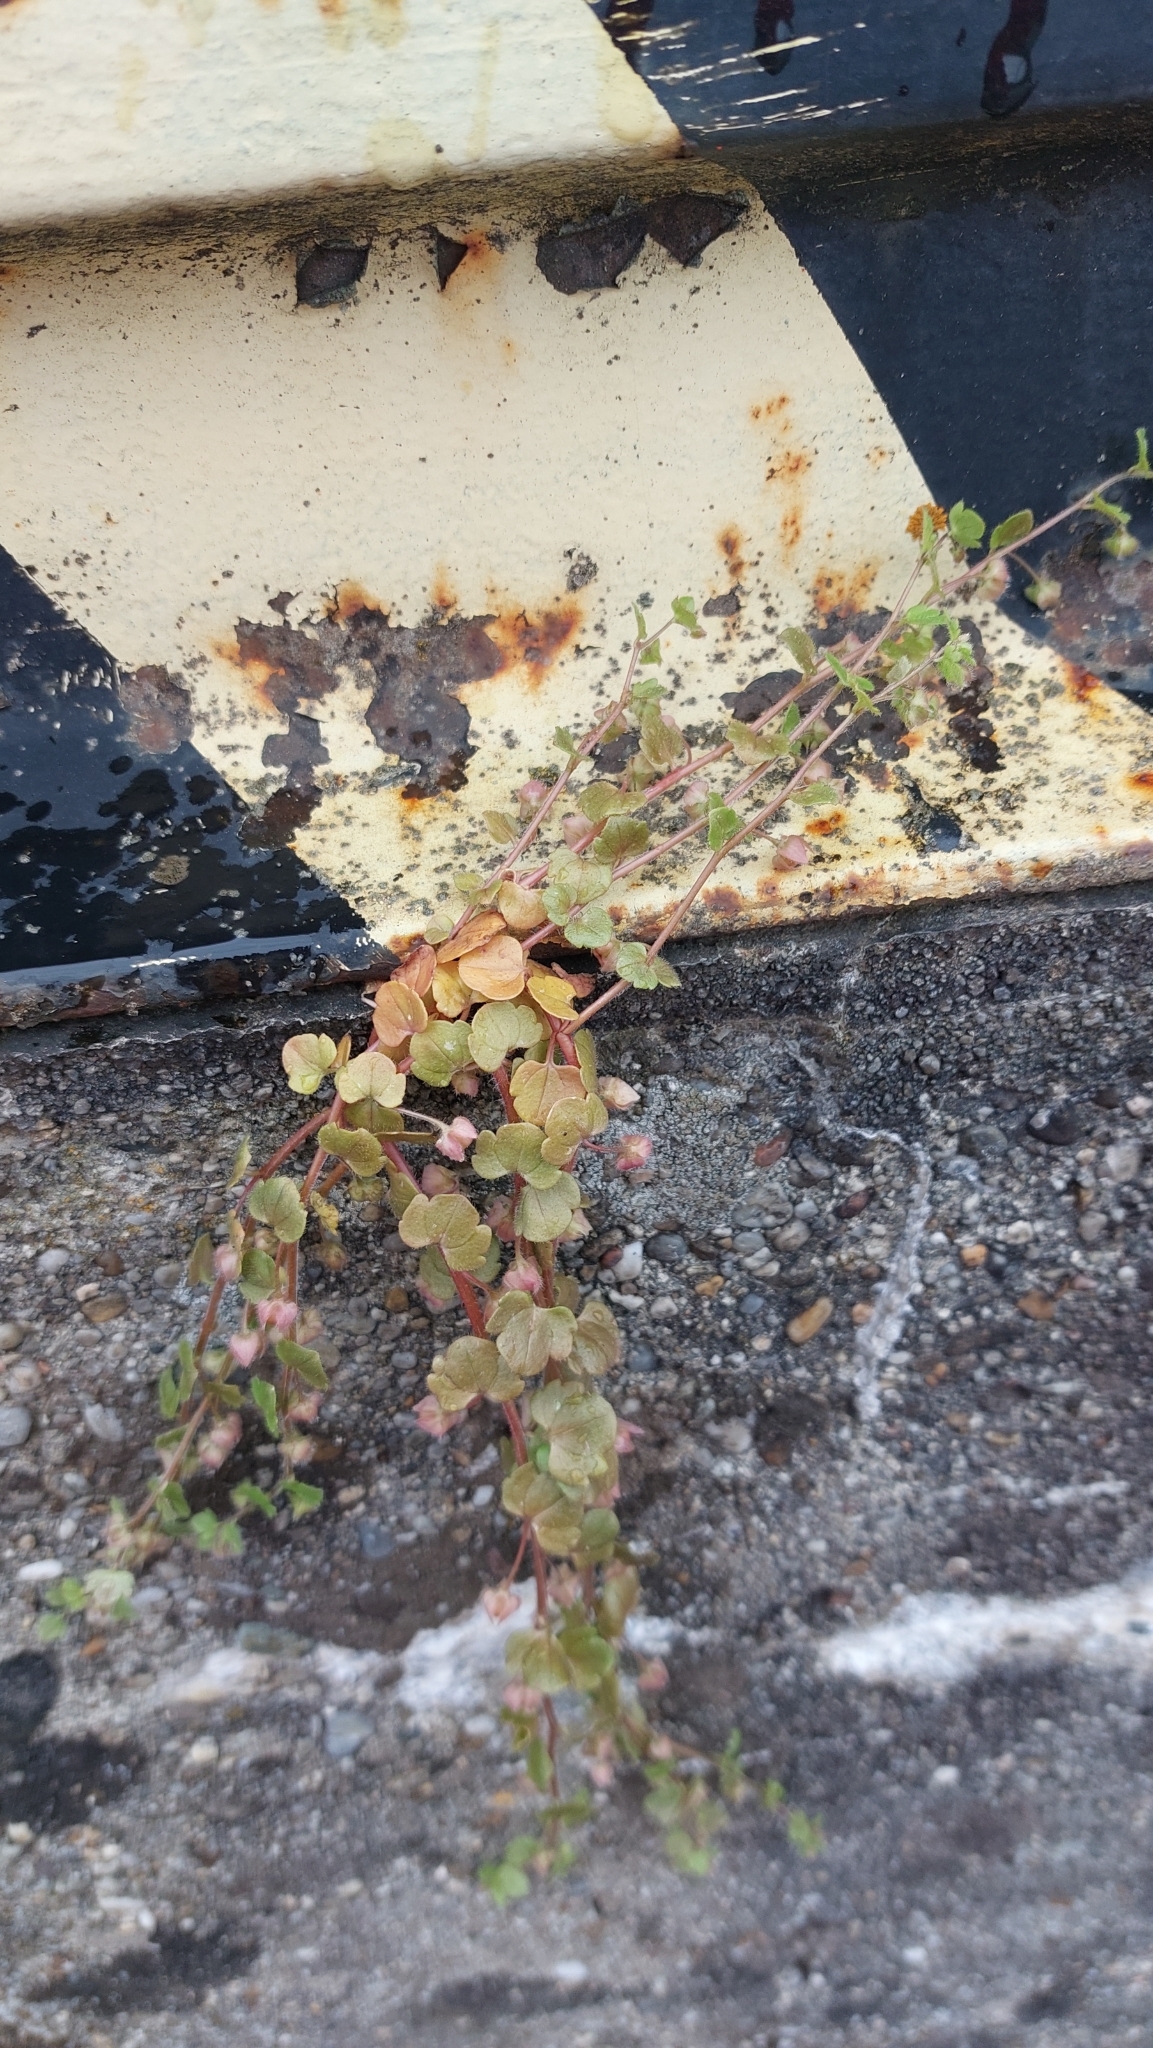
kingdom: Plantae
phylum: Tracheophyta
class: Magnoliopsida
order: Lamiales
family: Plantaginaceae
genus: Cymbalaria
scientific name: Cymbalaria muralis
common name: Ivy-leaved toadflax
